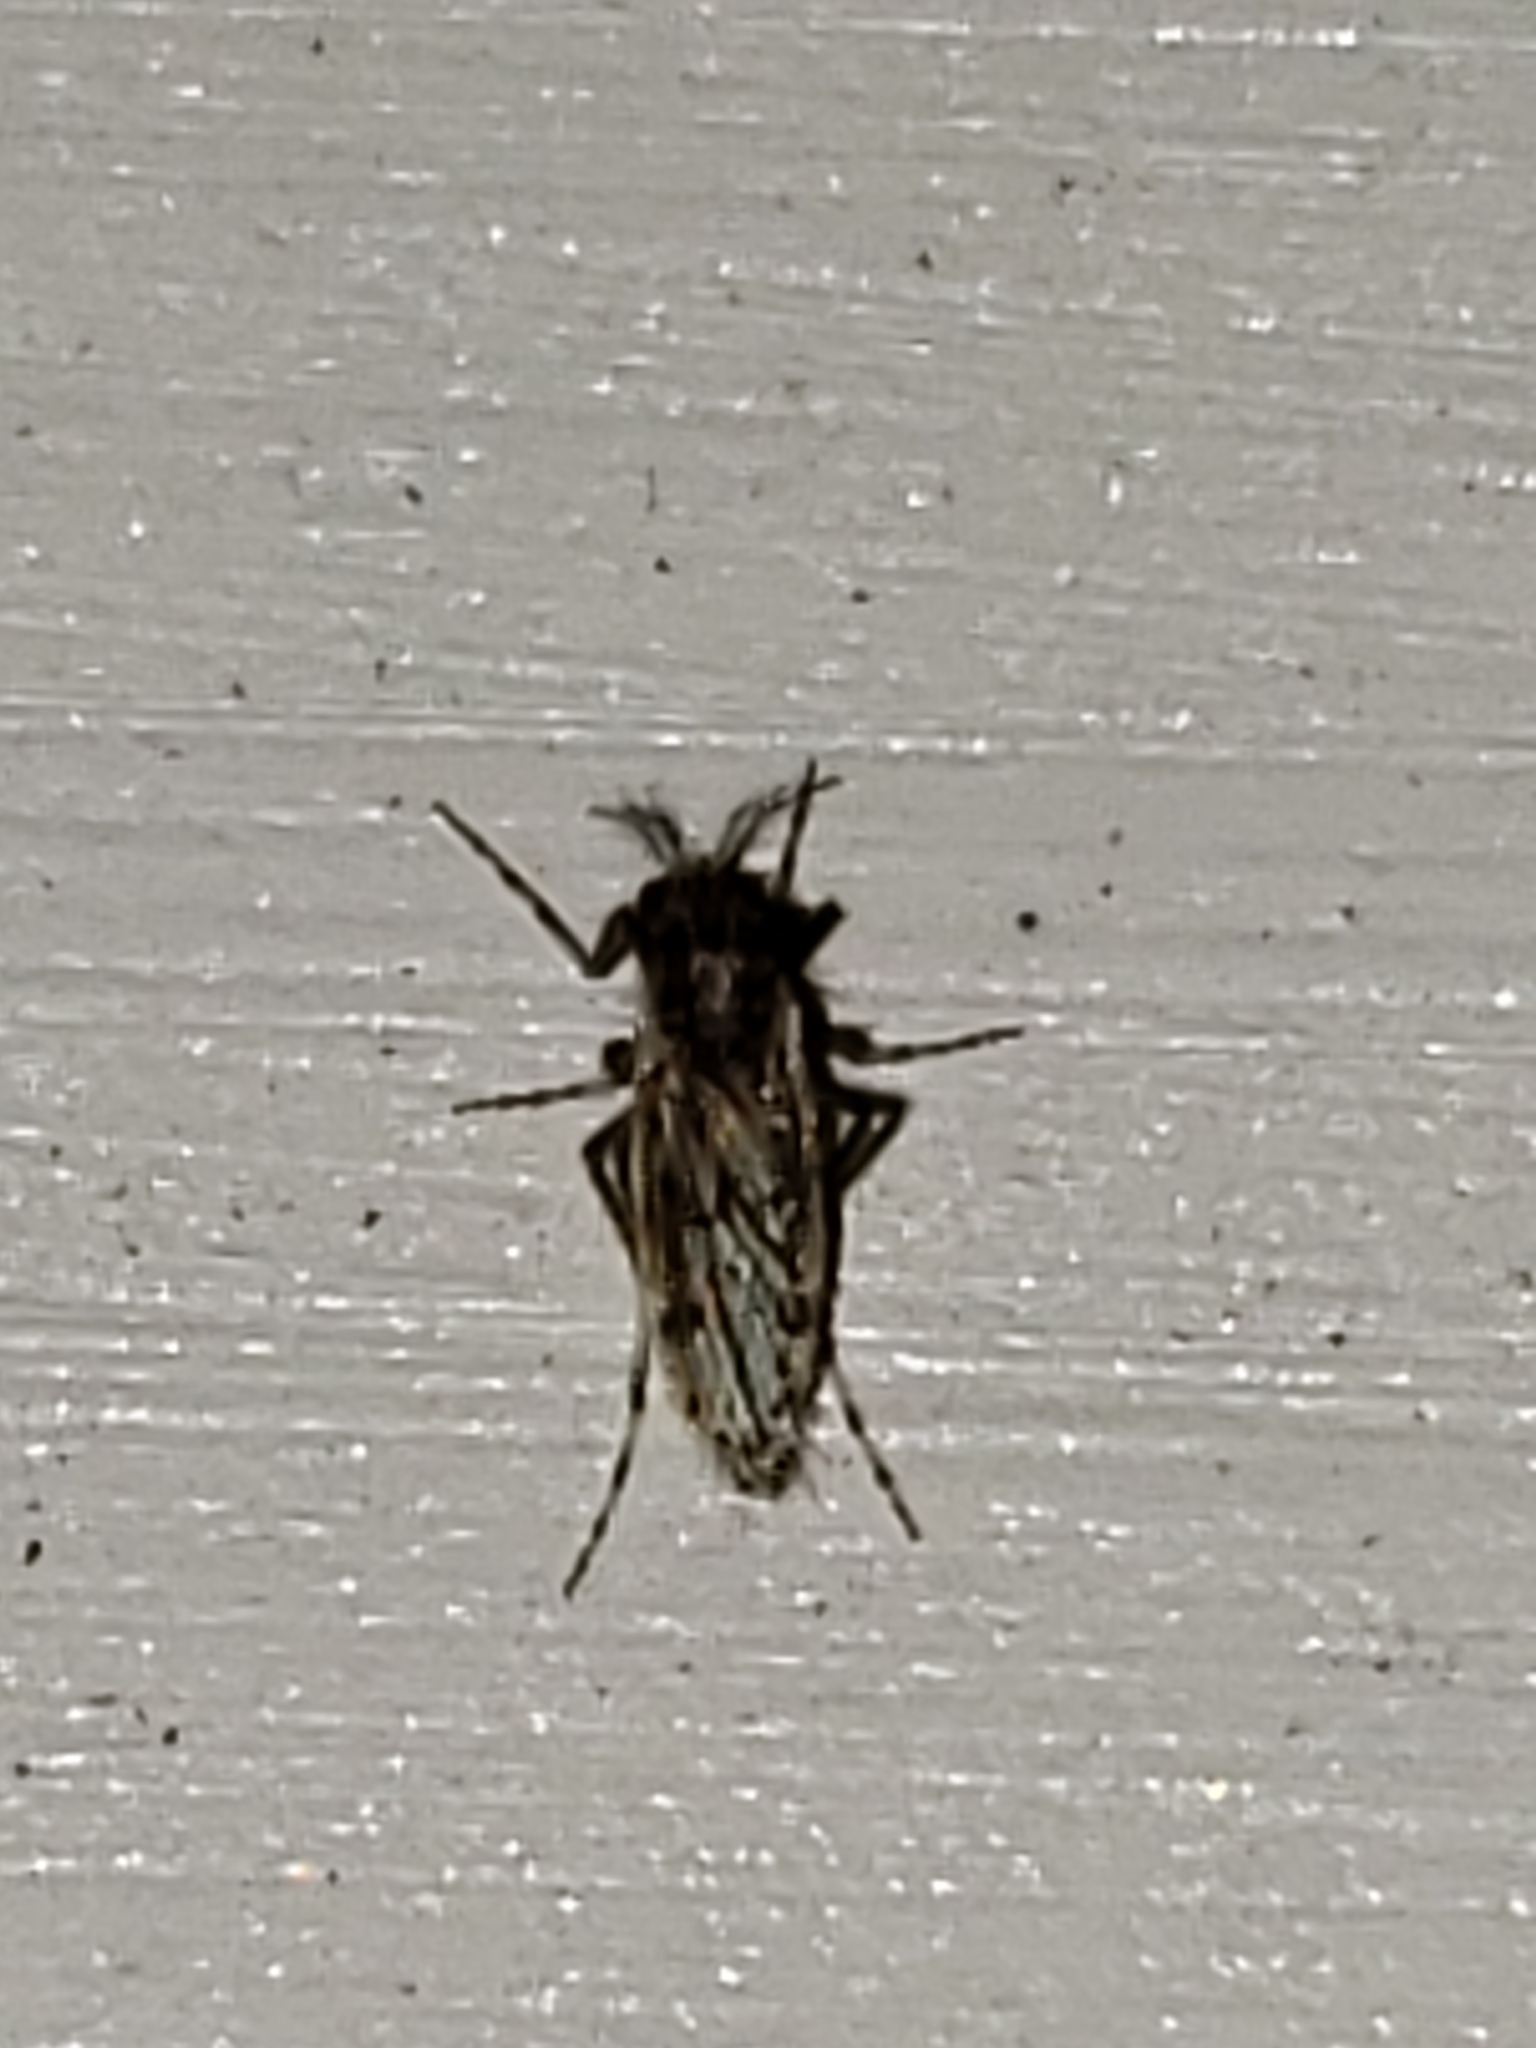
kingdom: Animalia
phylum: Arthropoda
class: Insecta
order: Diptera
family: Chaoboridae
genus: Chaoborus
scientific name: Chaoborus punctipennis
